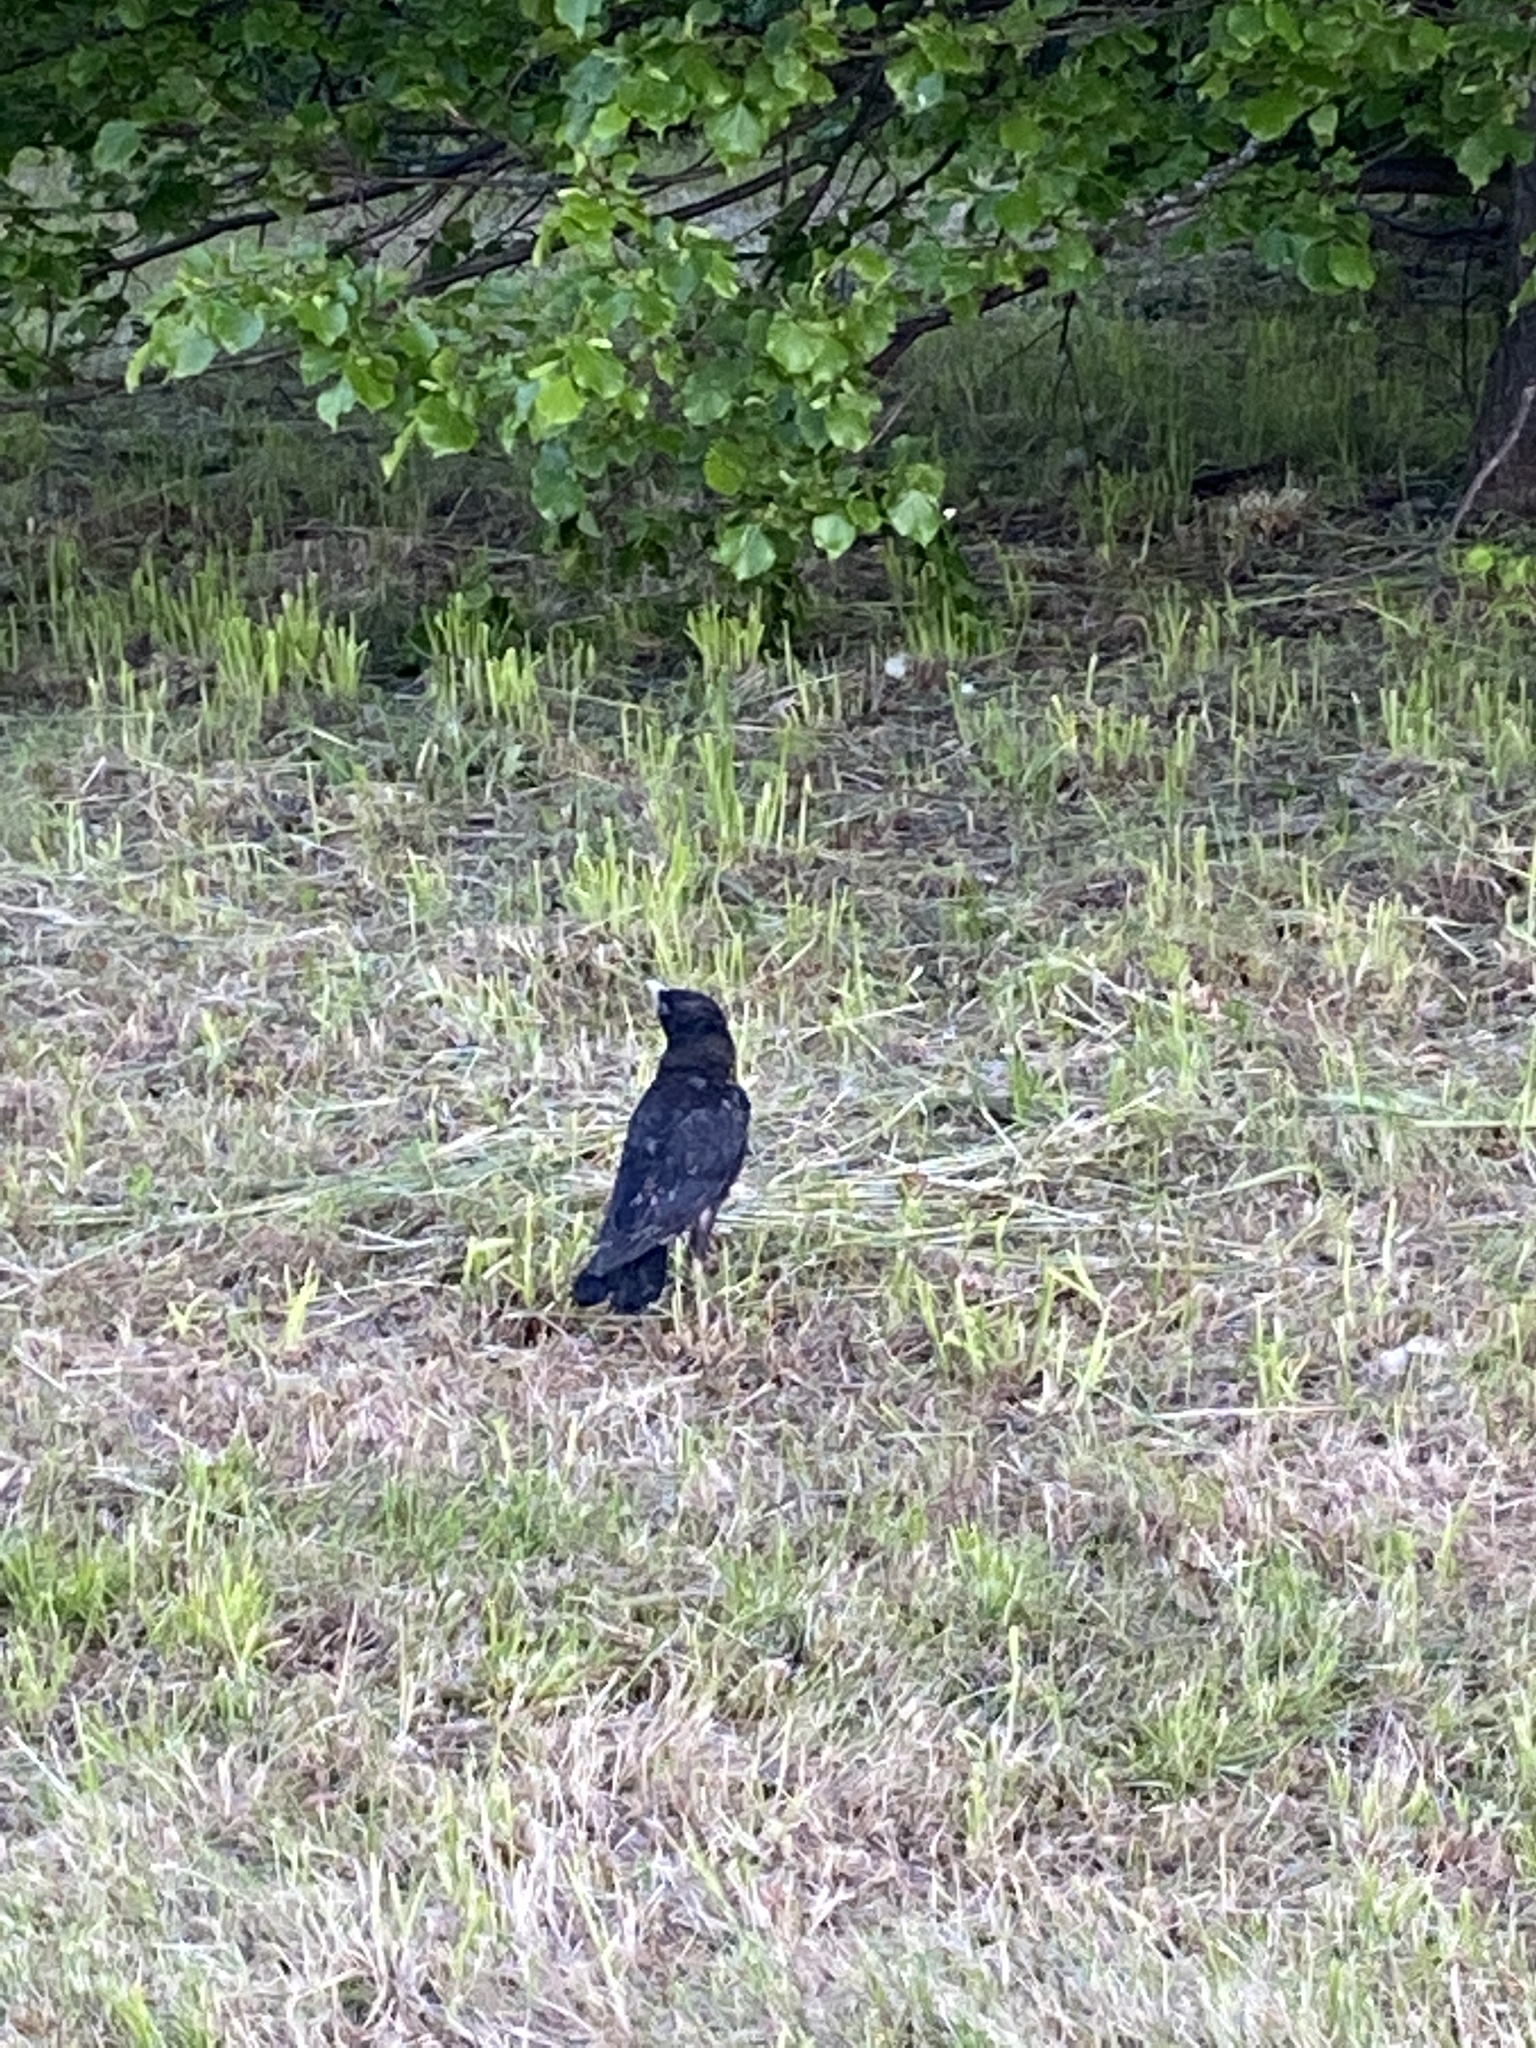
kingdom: Animalia
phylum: Chordata
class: Aves
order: Passeriformes
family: Corvidae
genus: Corvus
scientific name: Corvus frugilegus
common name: Rook
